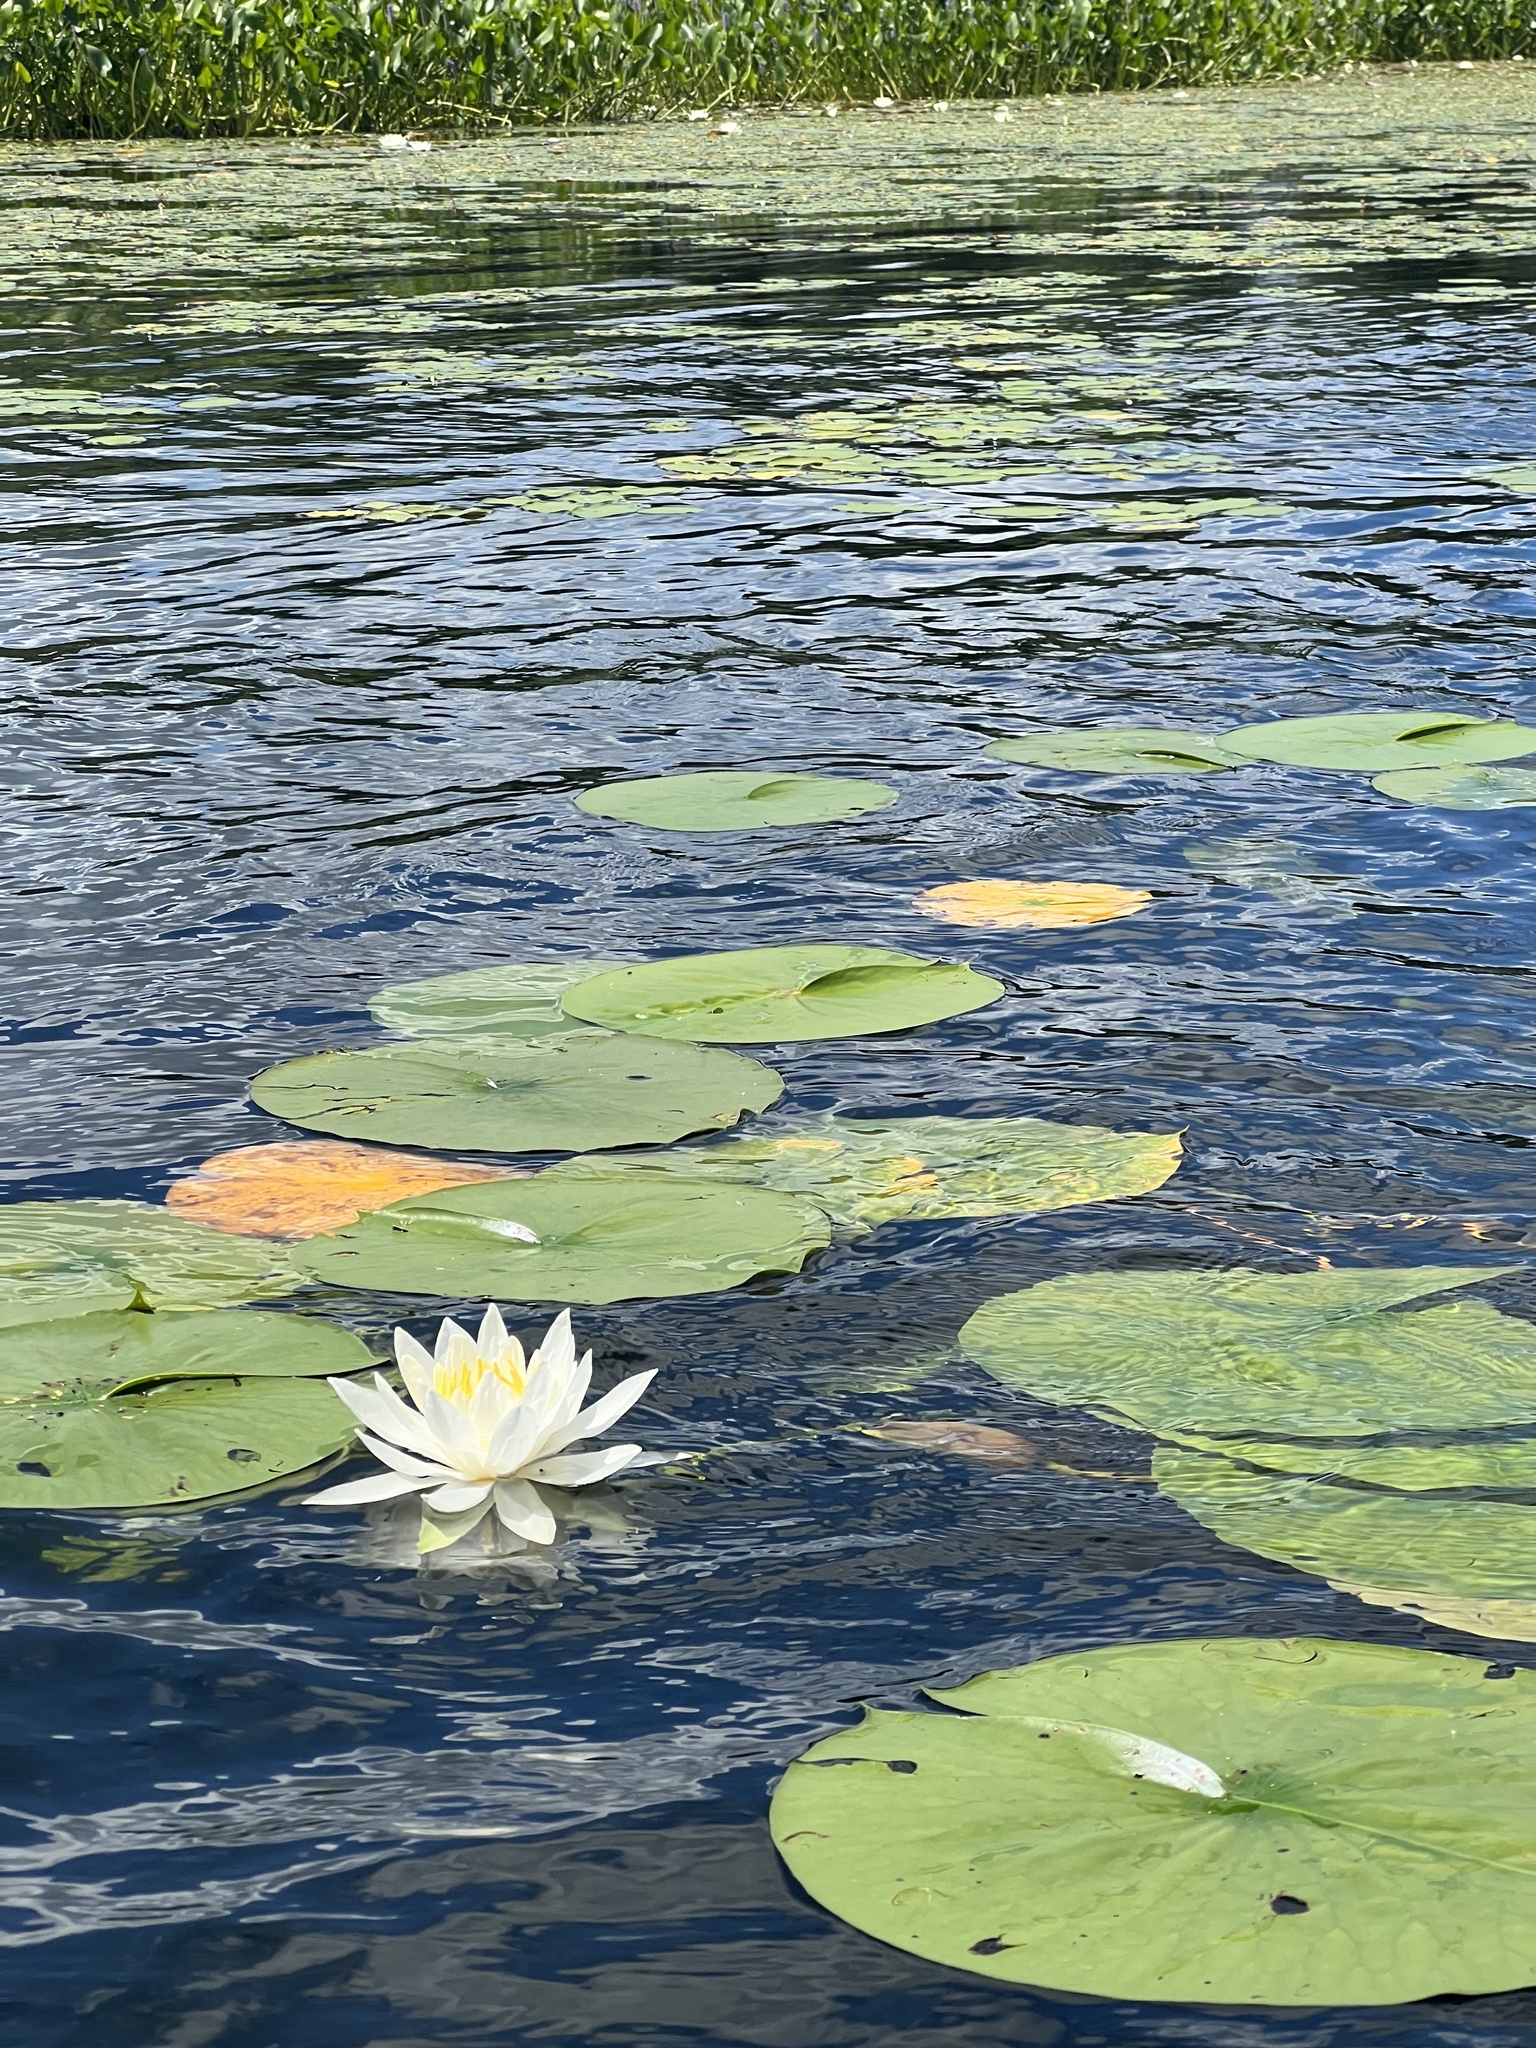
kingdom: Plantae
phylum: Tracheophyta
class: Magnoliopsida
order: Nymphaeales
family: Nymphaeaceae
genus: Nymphaea
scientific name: Nymphaea odorata
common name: Fragrant water-lily
